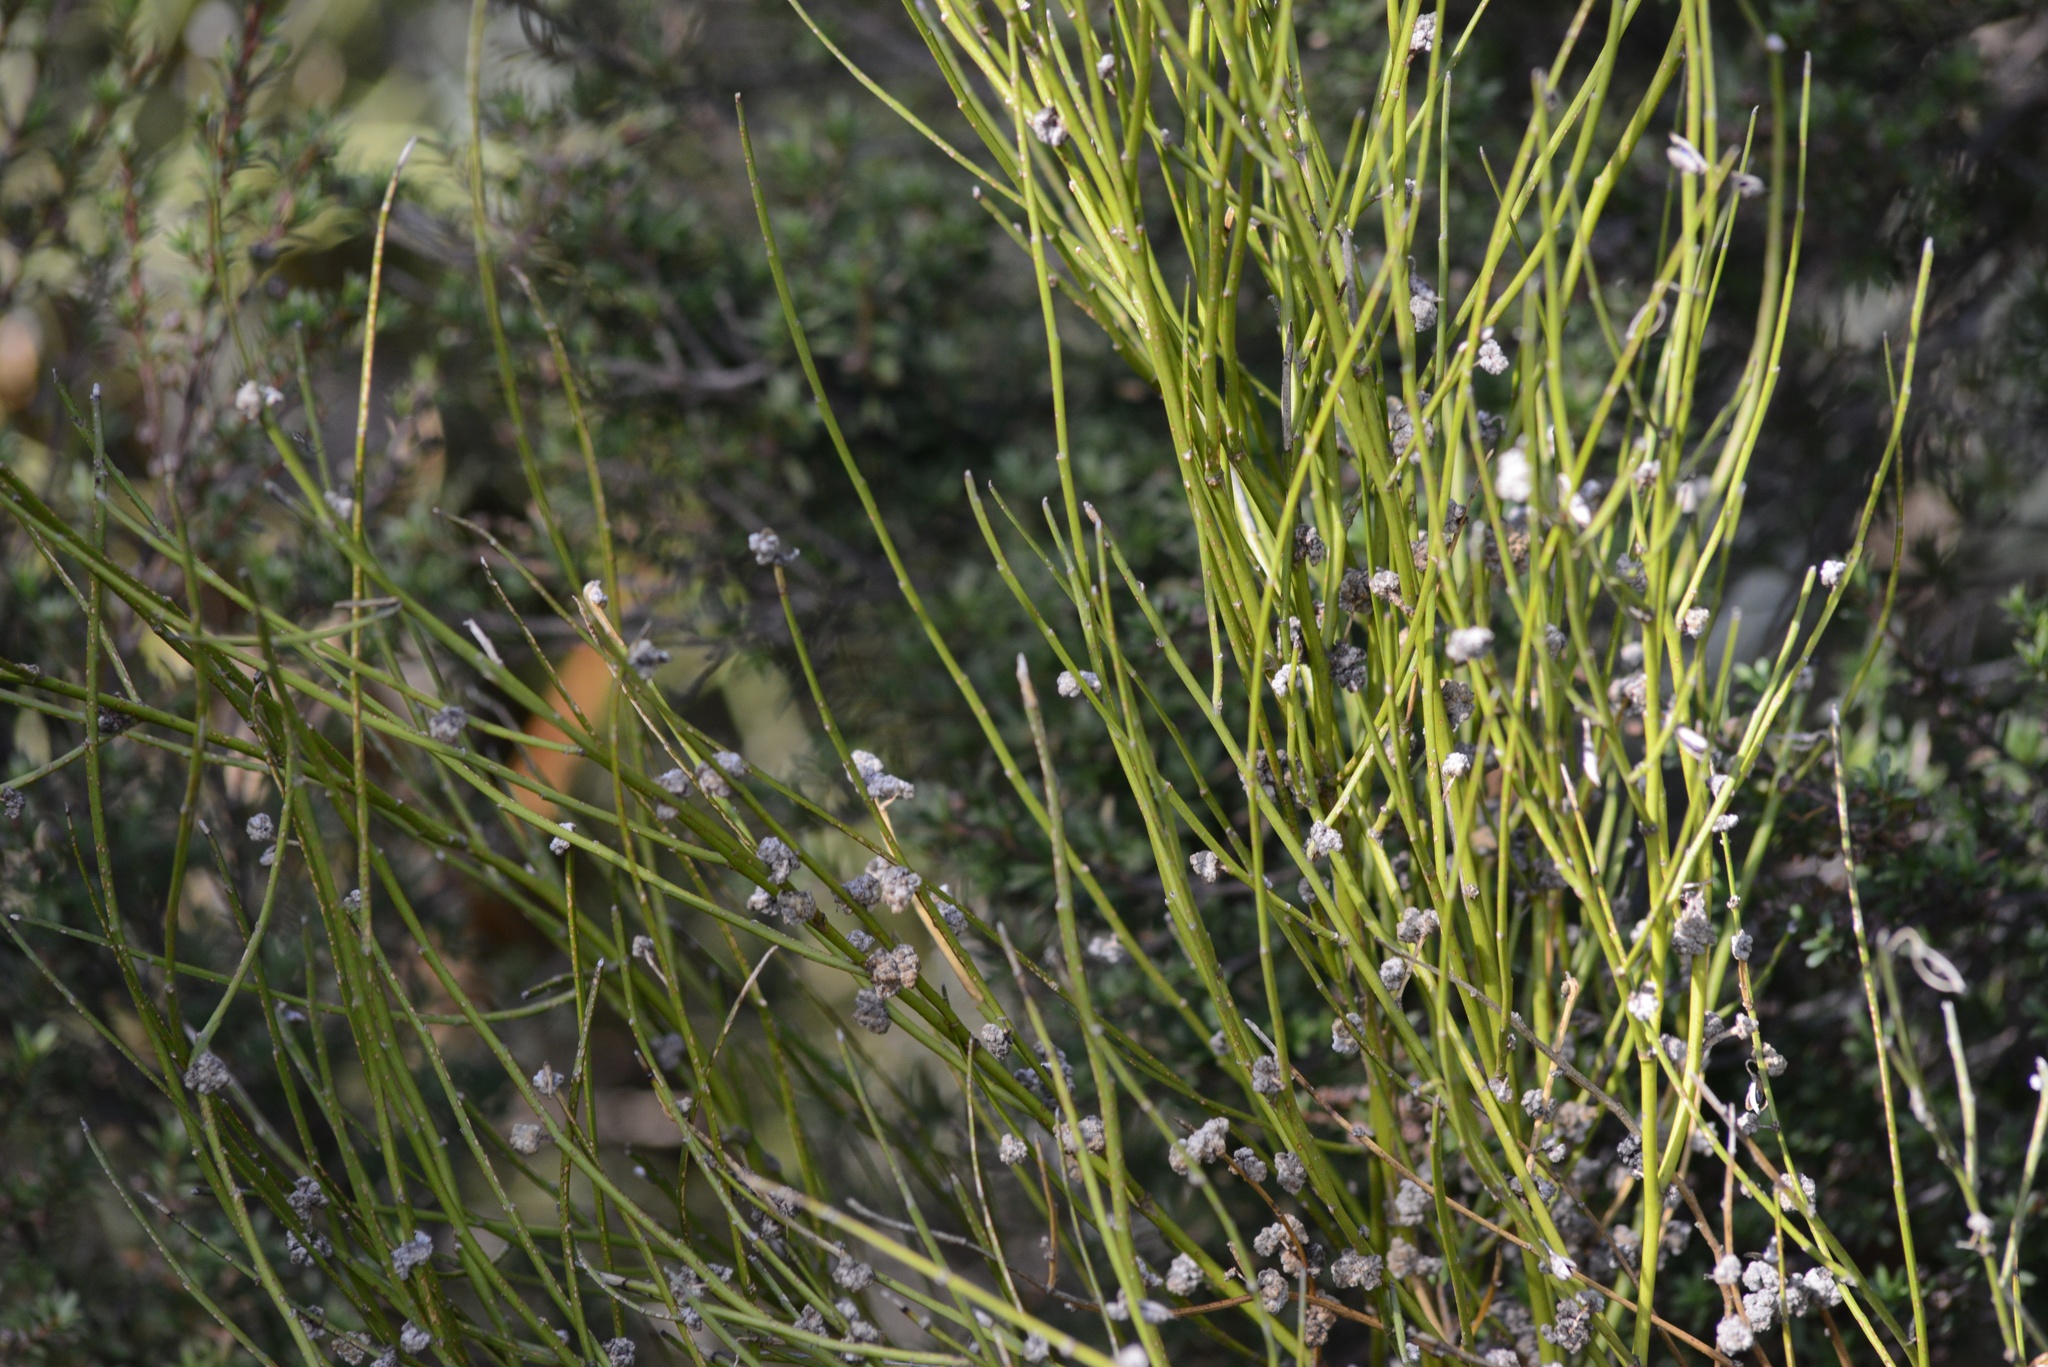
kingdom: Plantae
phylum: Tracheophyta
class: Magnoliopsida
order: Fabales
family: Fabaceae
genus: Carmichaelia
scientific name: Carmichaelia australis
